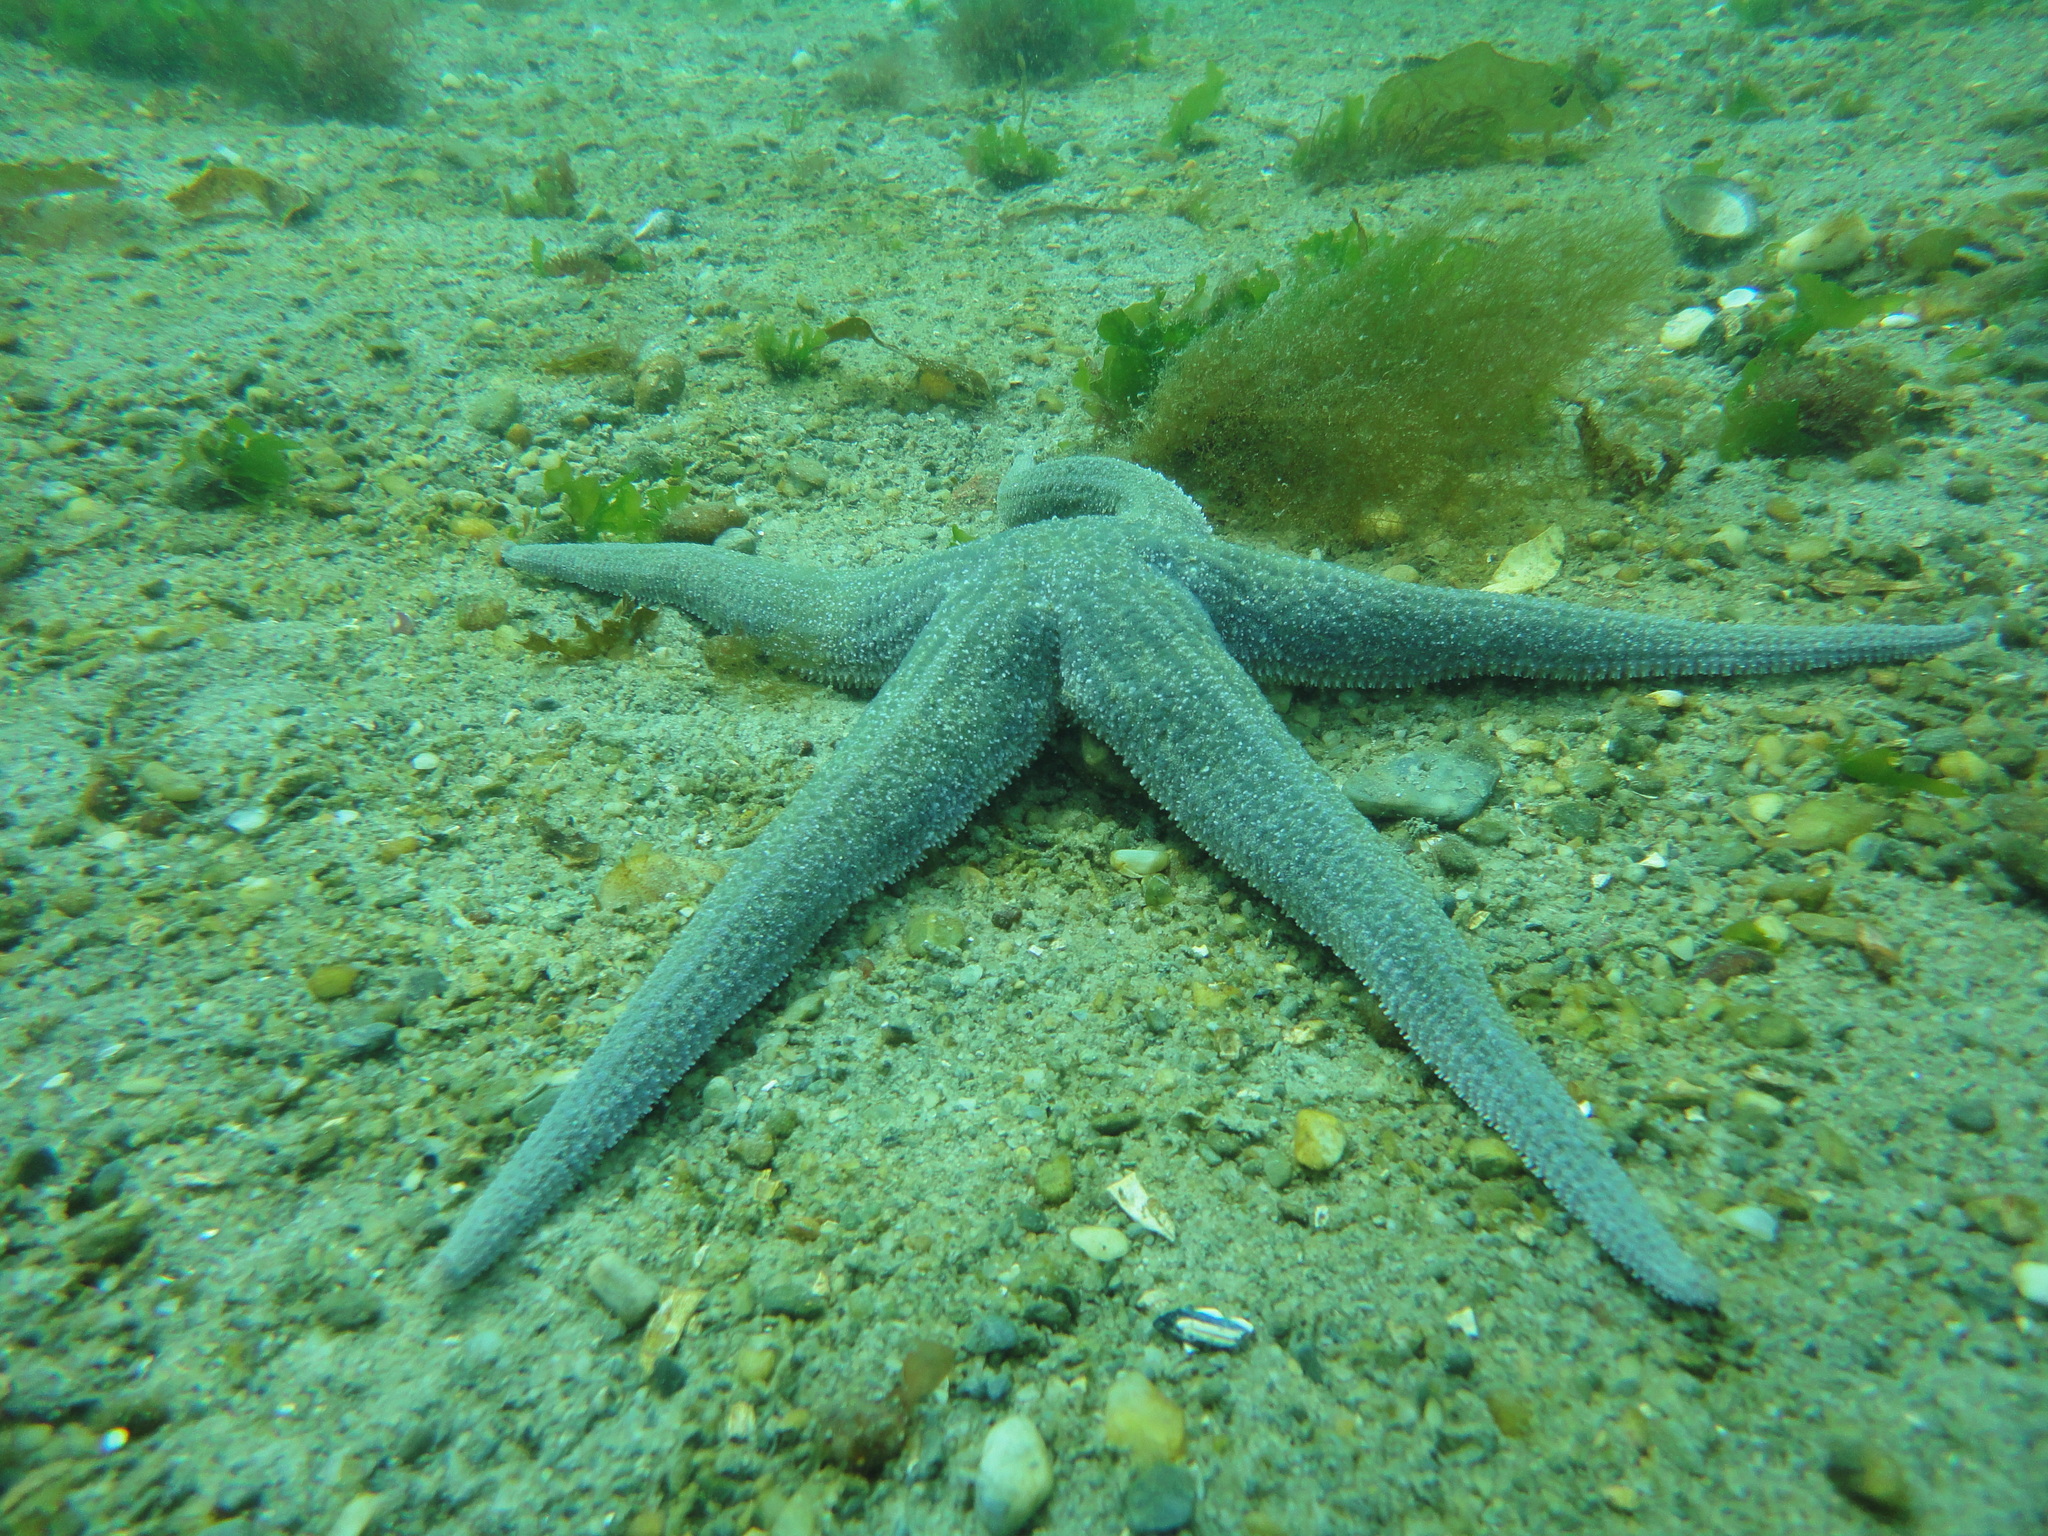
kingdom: Animalia
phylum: Echinodermata
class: Asteroidea
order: Forcipulatida
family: Stichasteridae
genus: Cosmasterias
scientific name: Cosmasterias lurida
